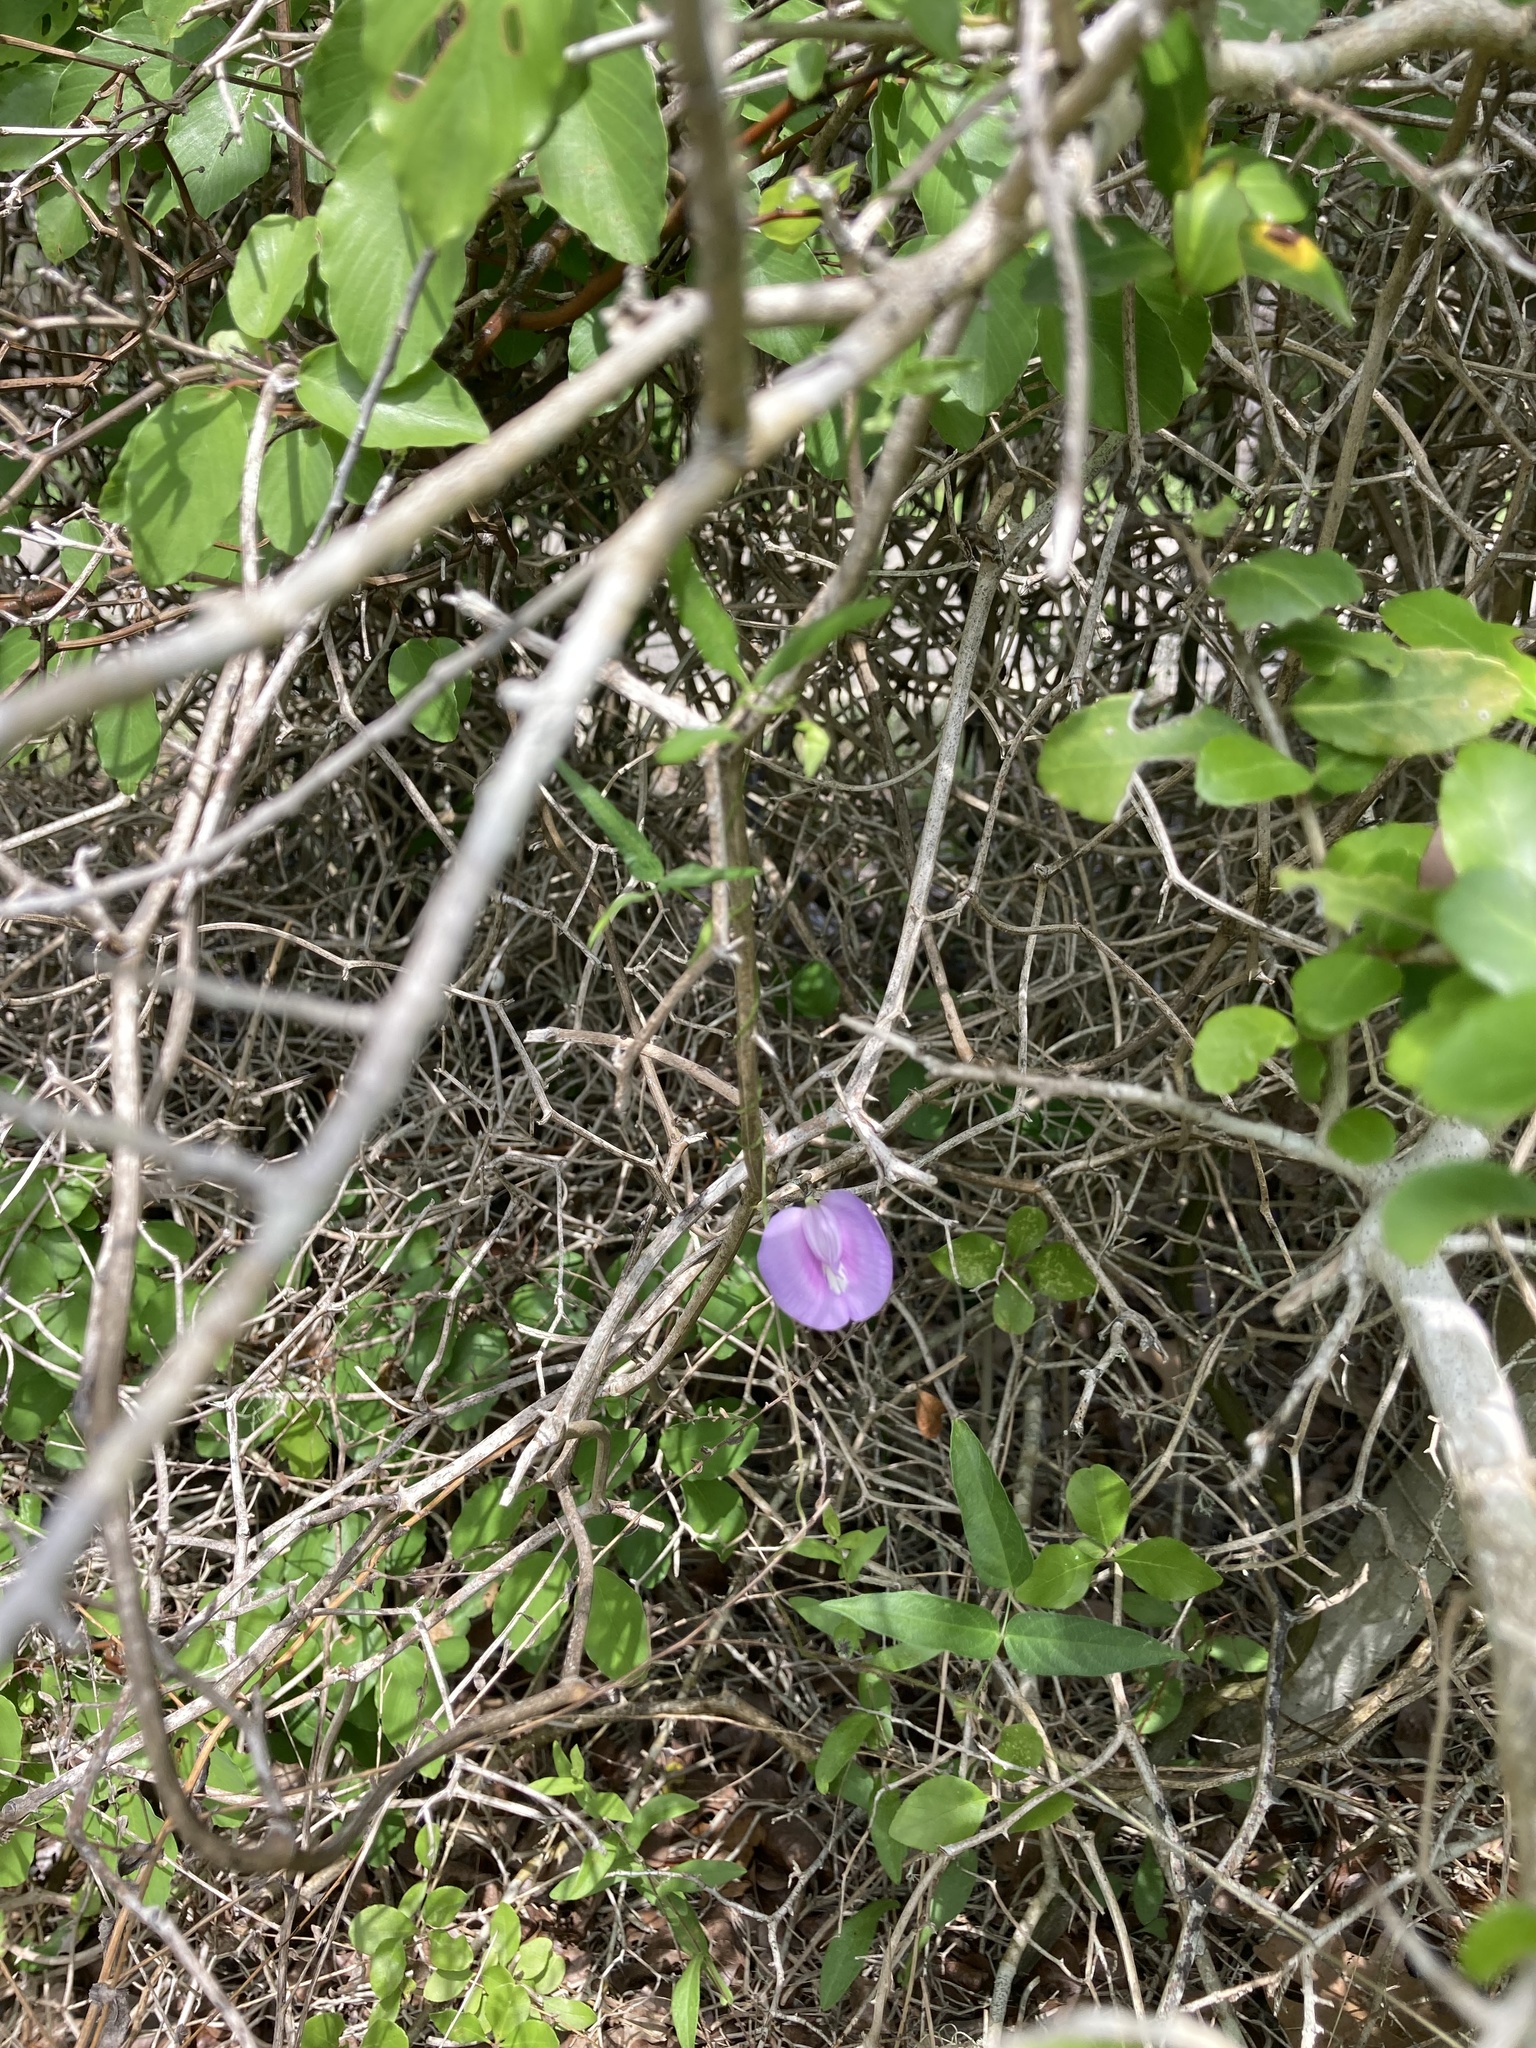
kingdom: Plantae
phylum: Tracheophyta
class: Magnoliopsida
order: Fabales
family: Fabaceae
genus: Centrosema
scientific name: Centrosema virginianum
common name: Butterfly-pea
